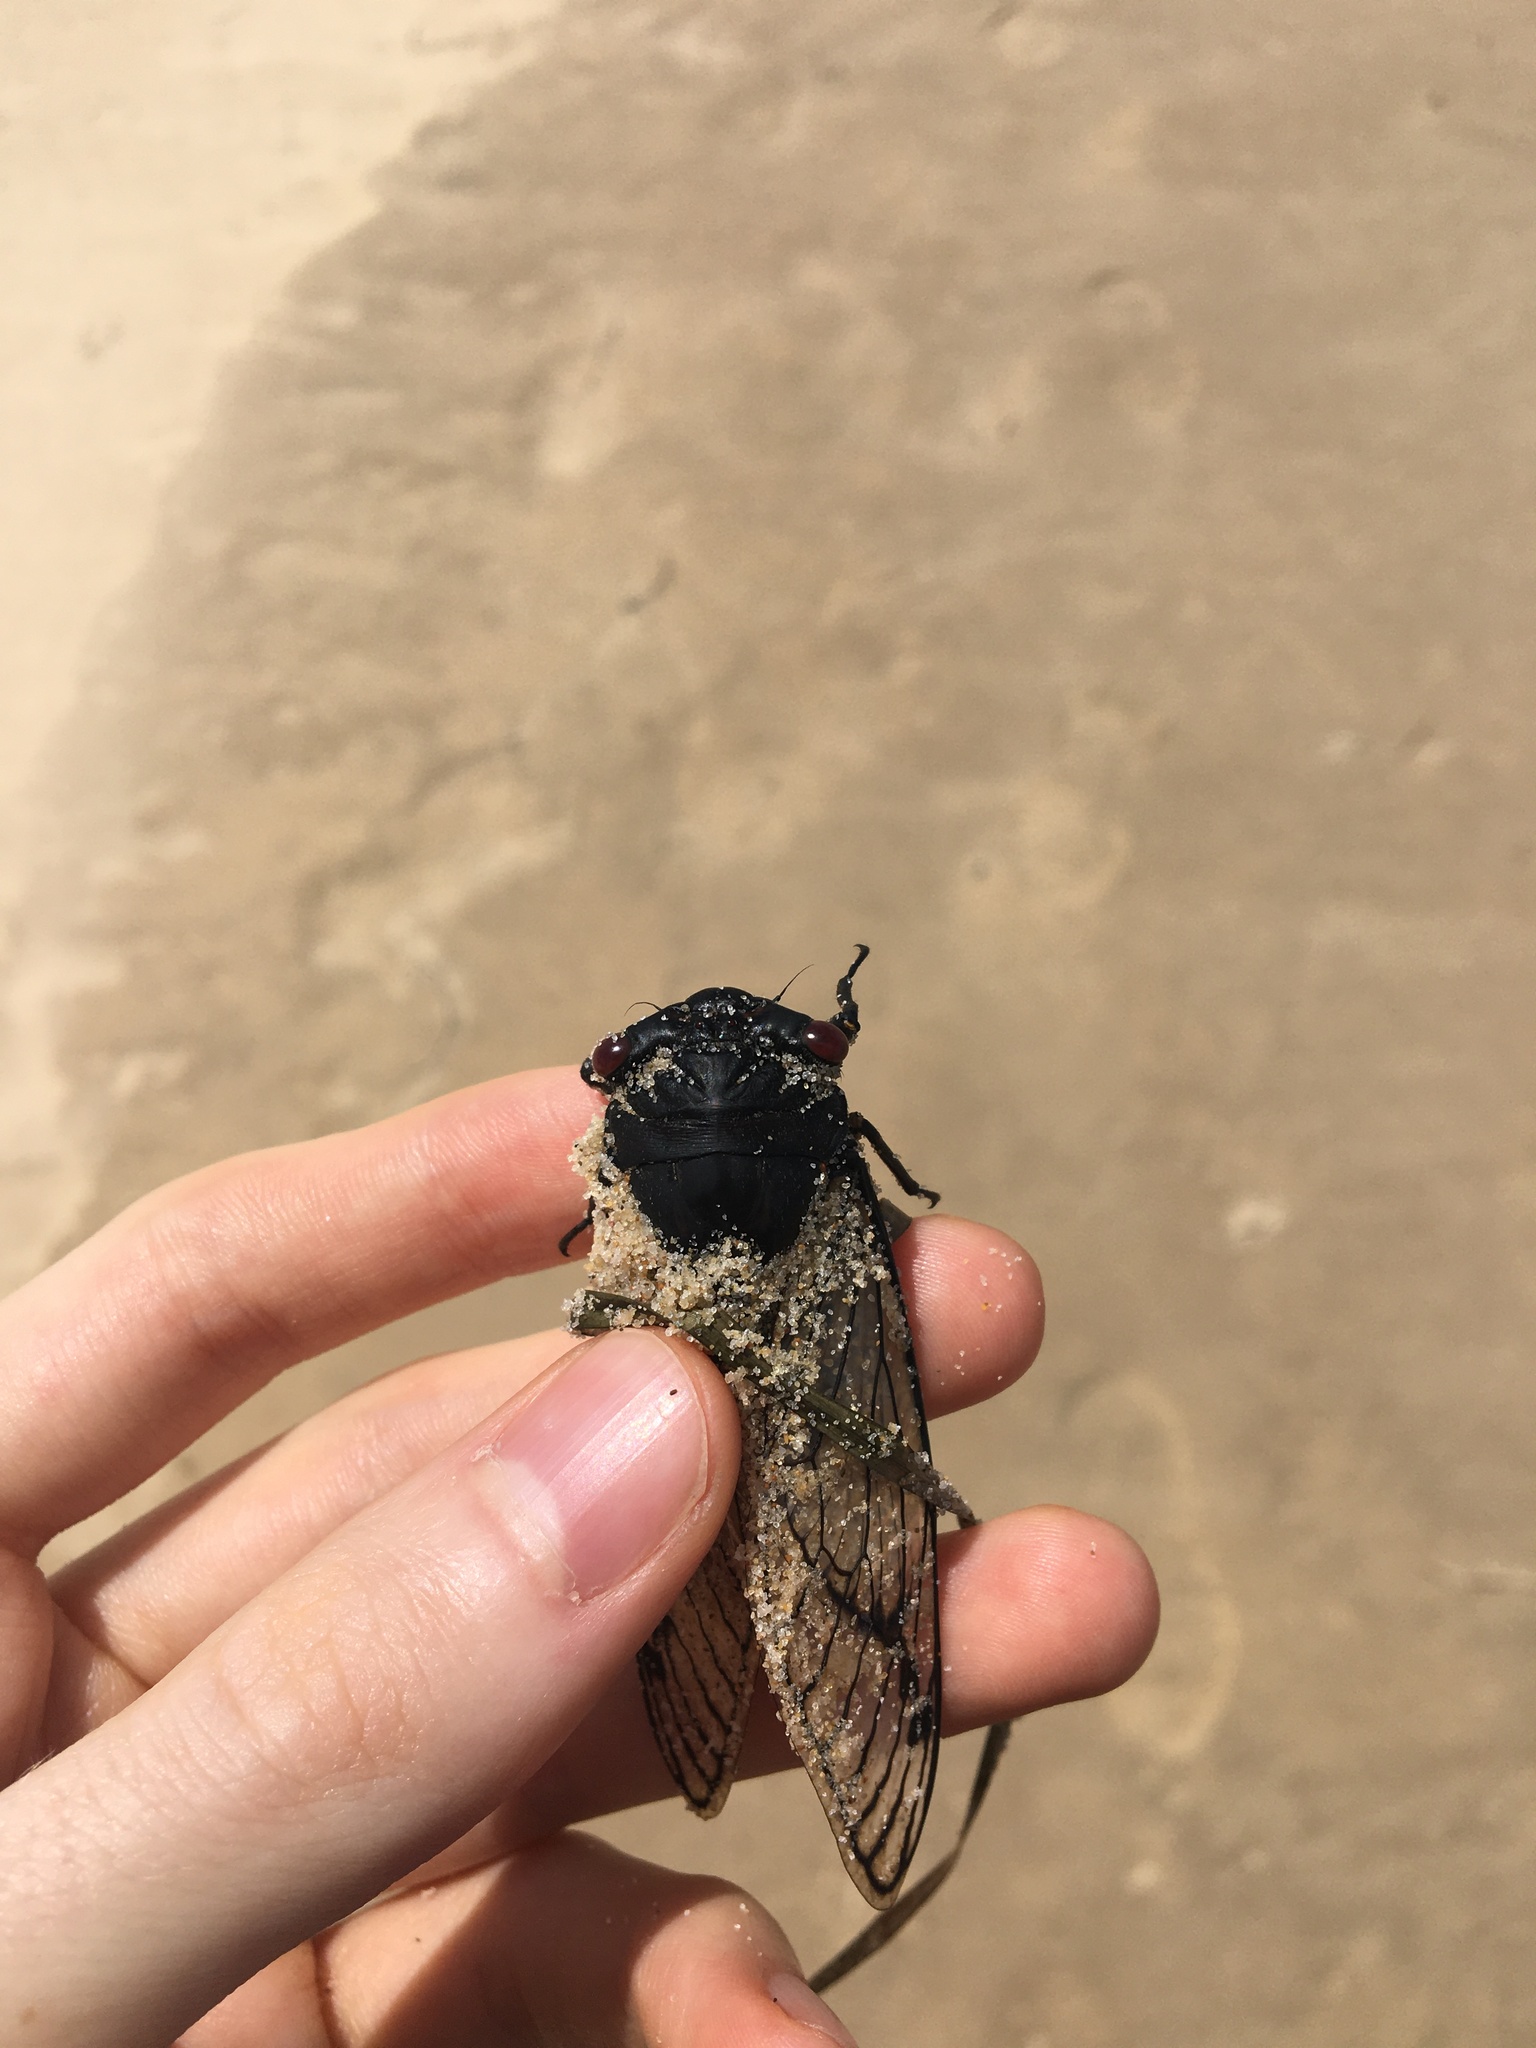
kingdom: Animalia
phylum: Arthropoda
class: Insecta
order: Hemiptera
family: Cicadidae
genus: Psaltoda
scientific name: Psaltoda moerens
